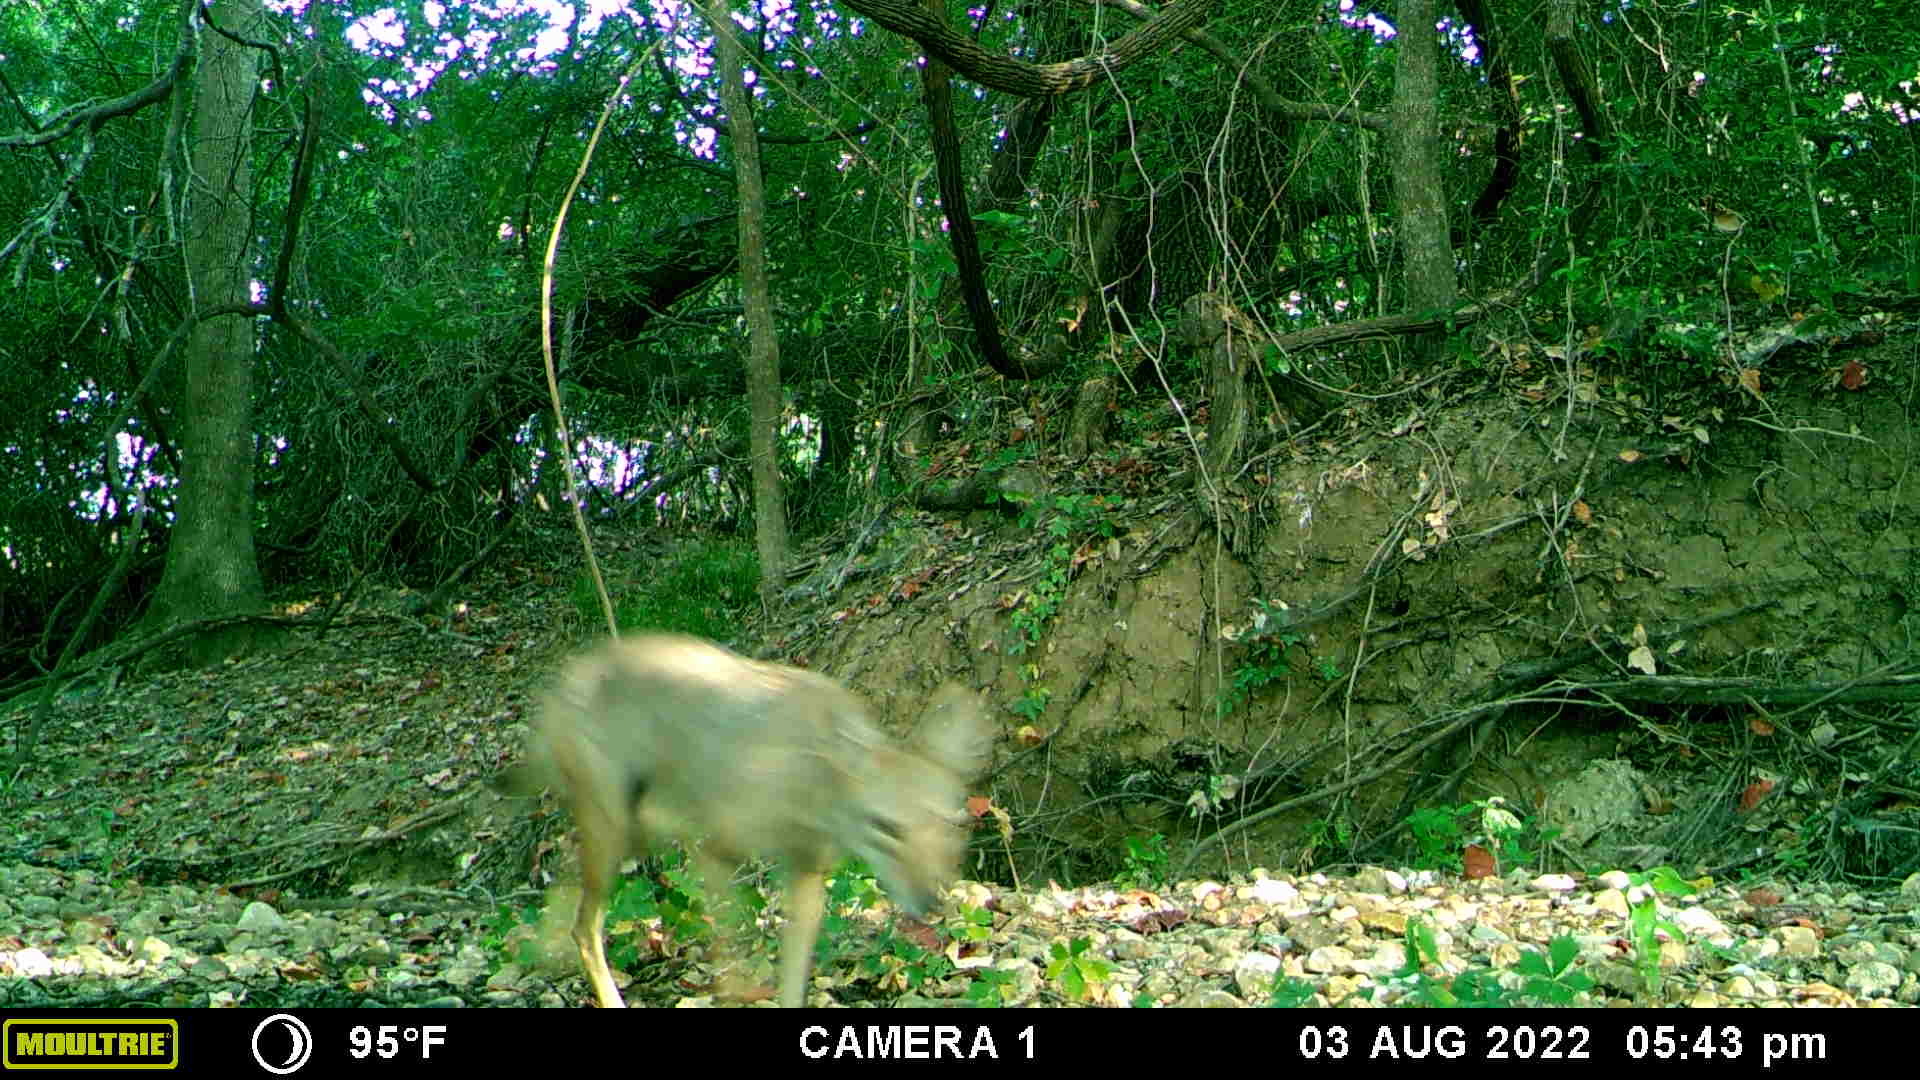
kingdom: Animalia
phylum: Chordata
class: Mammalia
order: Carnivora
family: Canidae
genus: Canis
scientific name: Canis latrans
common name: Coyote
